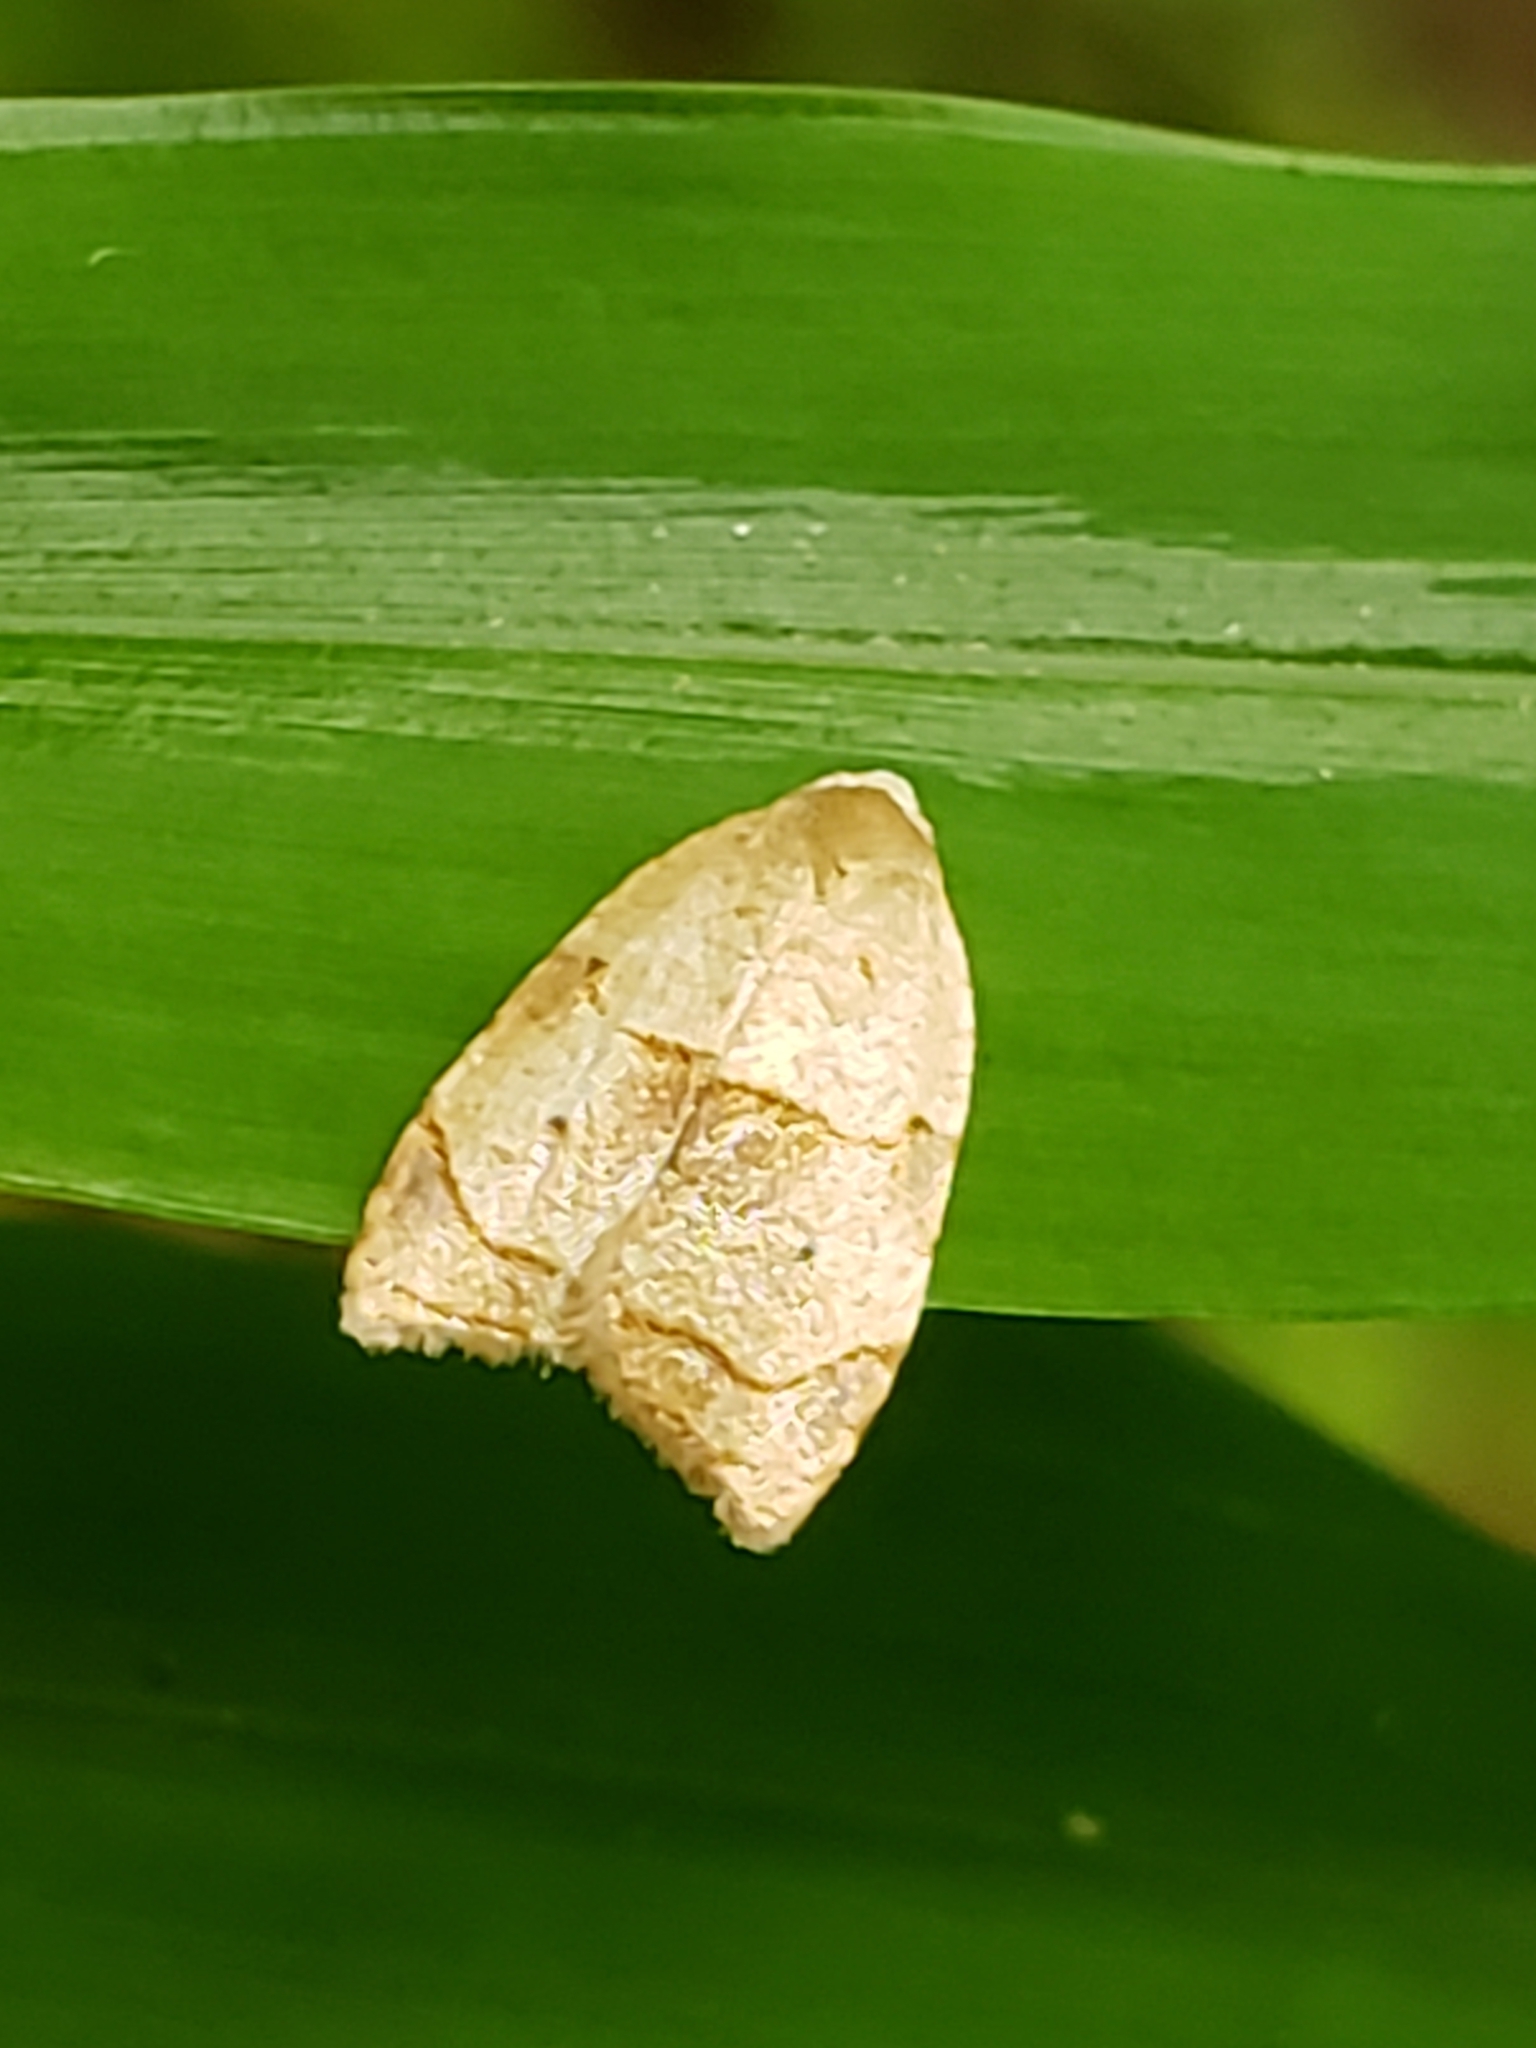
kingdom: Animalia
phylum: Arthropoda
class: Insecta
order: Lepidoptera
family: Tortricidae
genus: Coelostathma
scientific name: Coelostathma discopunctana
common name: Batman moth
